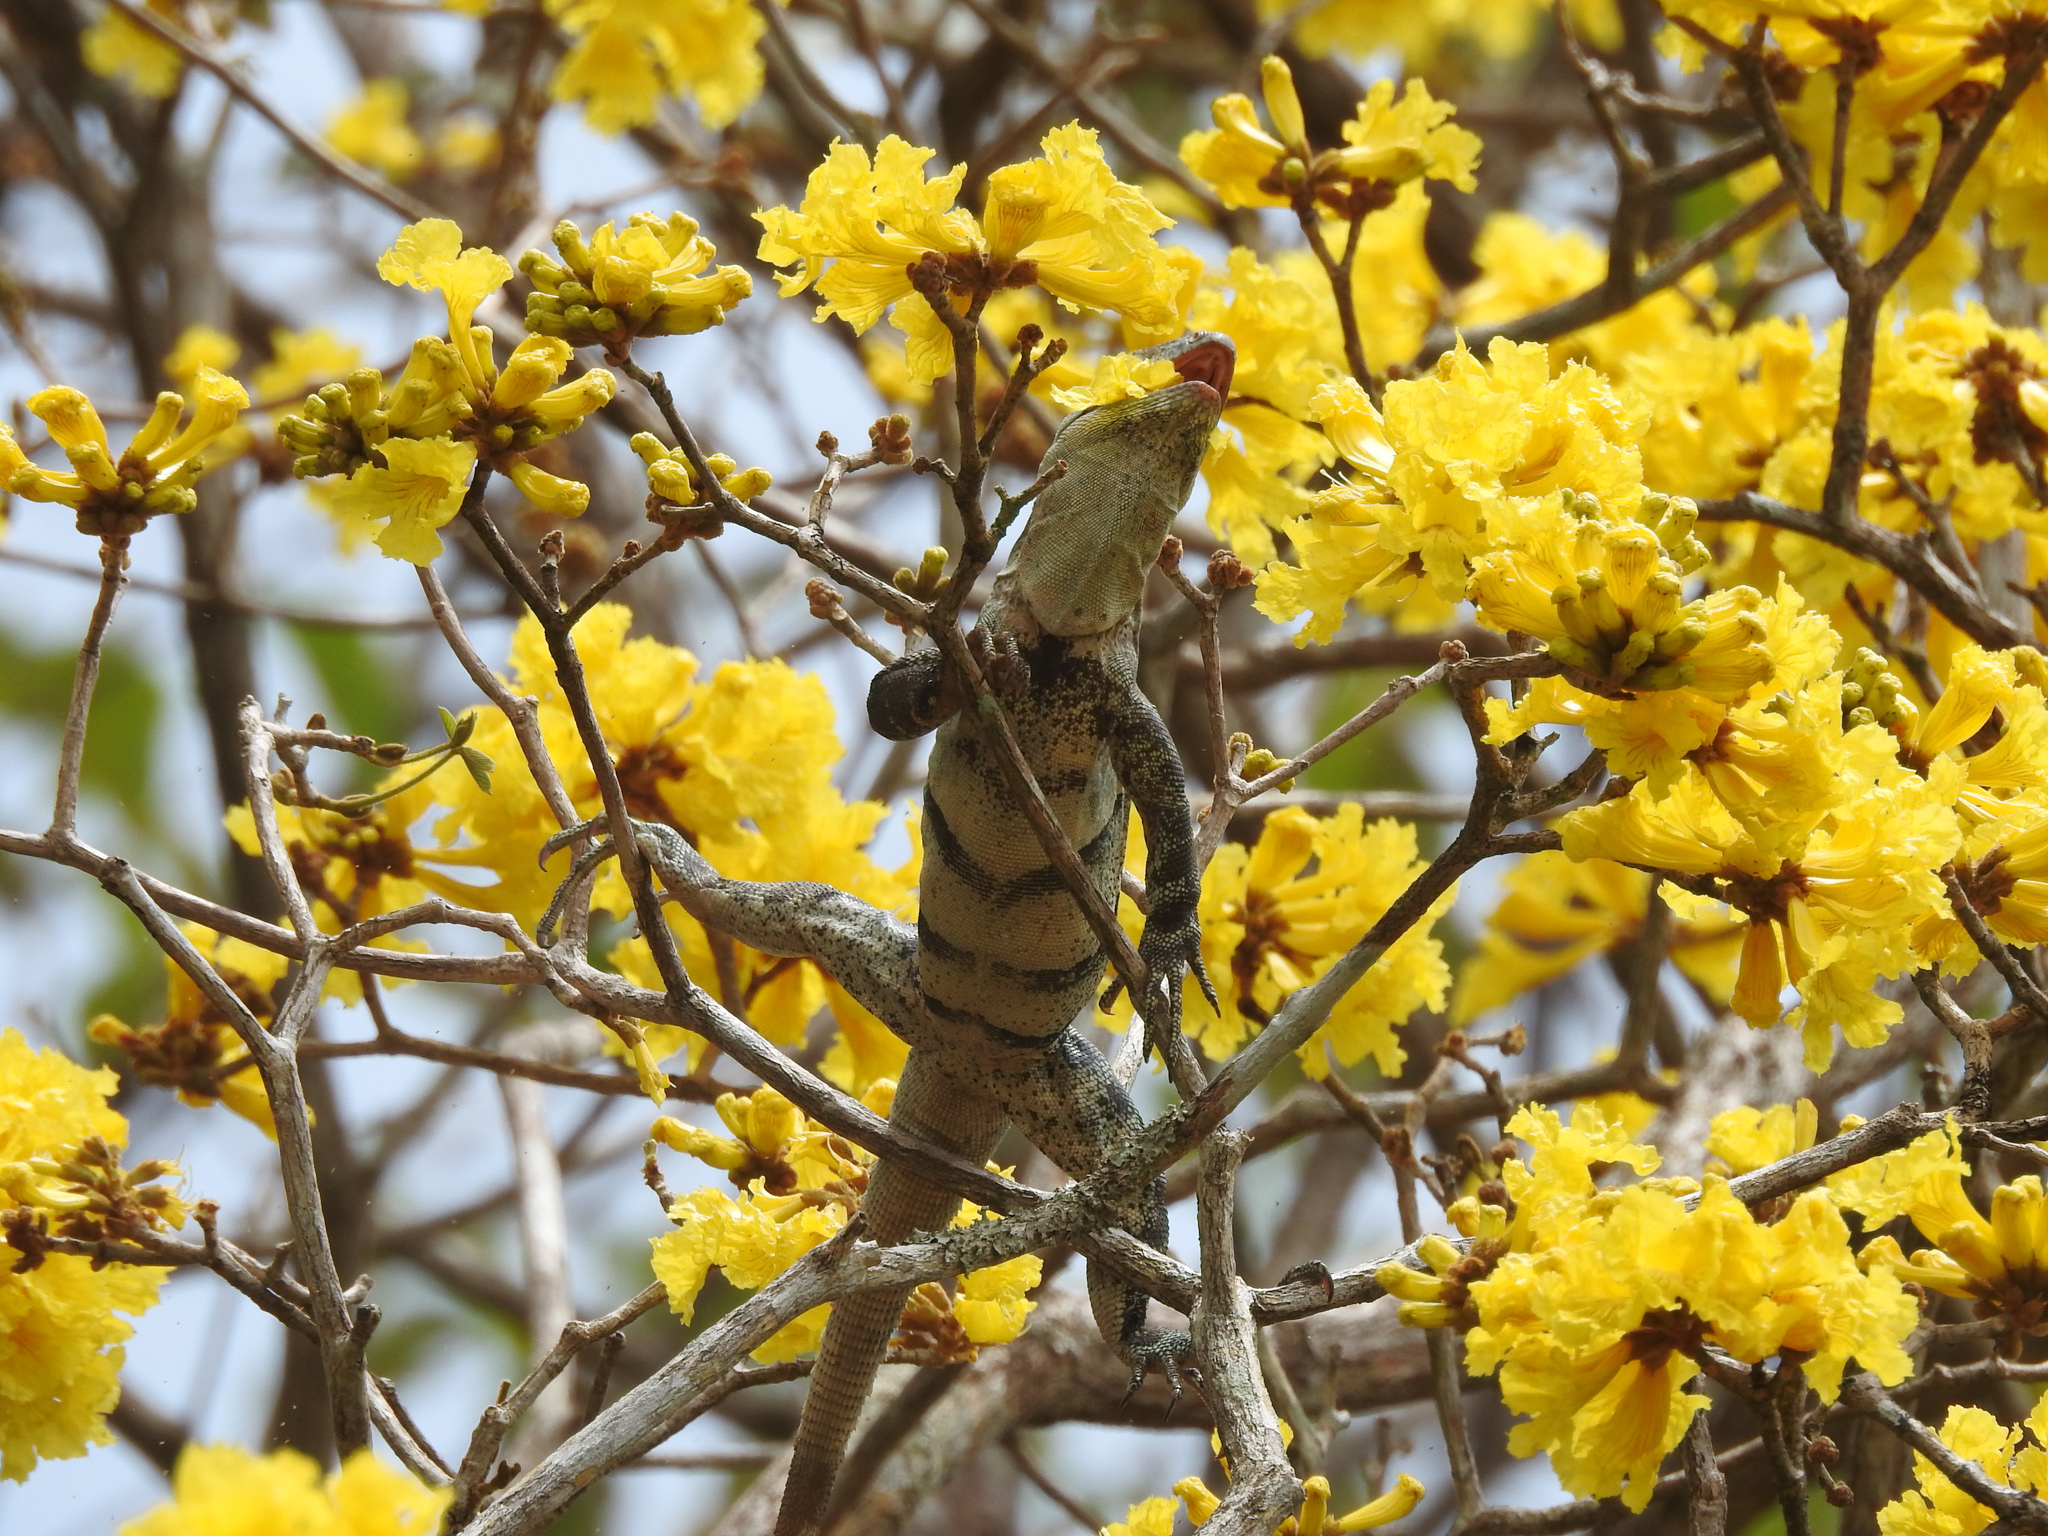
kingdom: Animalia
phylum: Chordata
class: Squamata
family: Iguanidae
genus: Ctenosaura
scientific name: Ctenosaura similis
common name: Black spiny-tailed iguana
